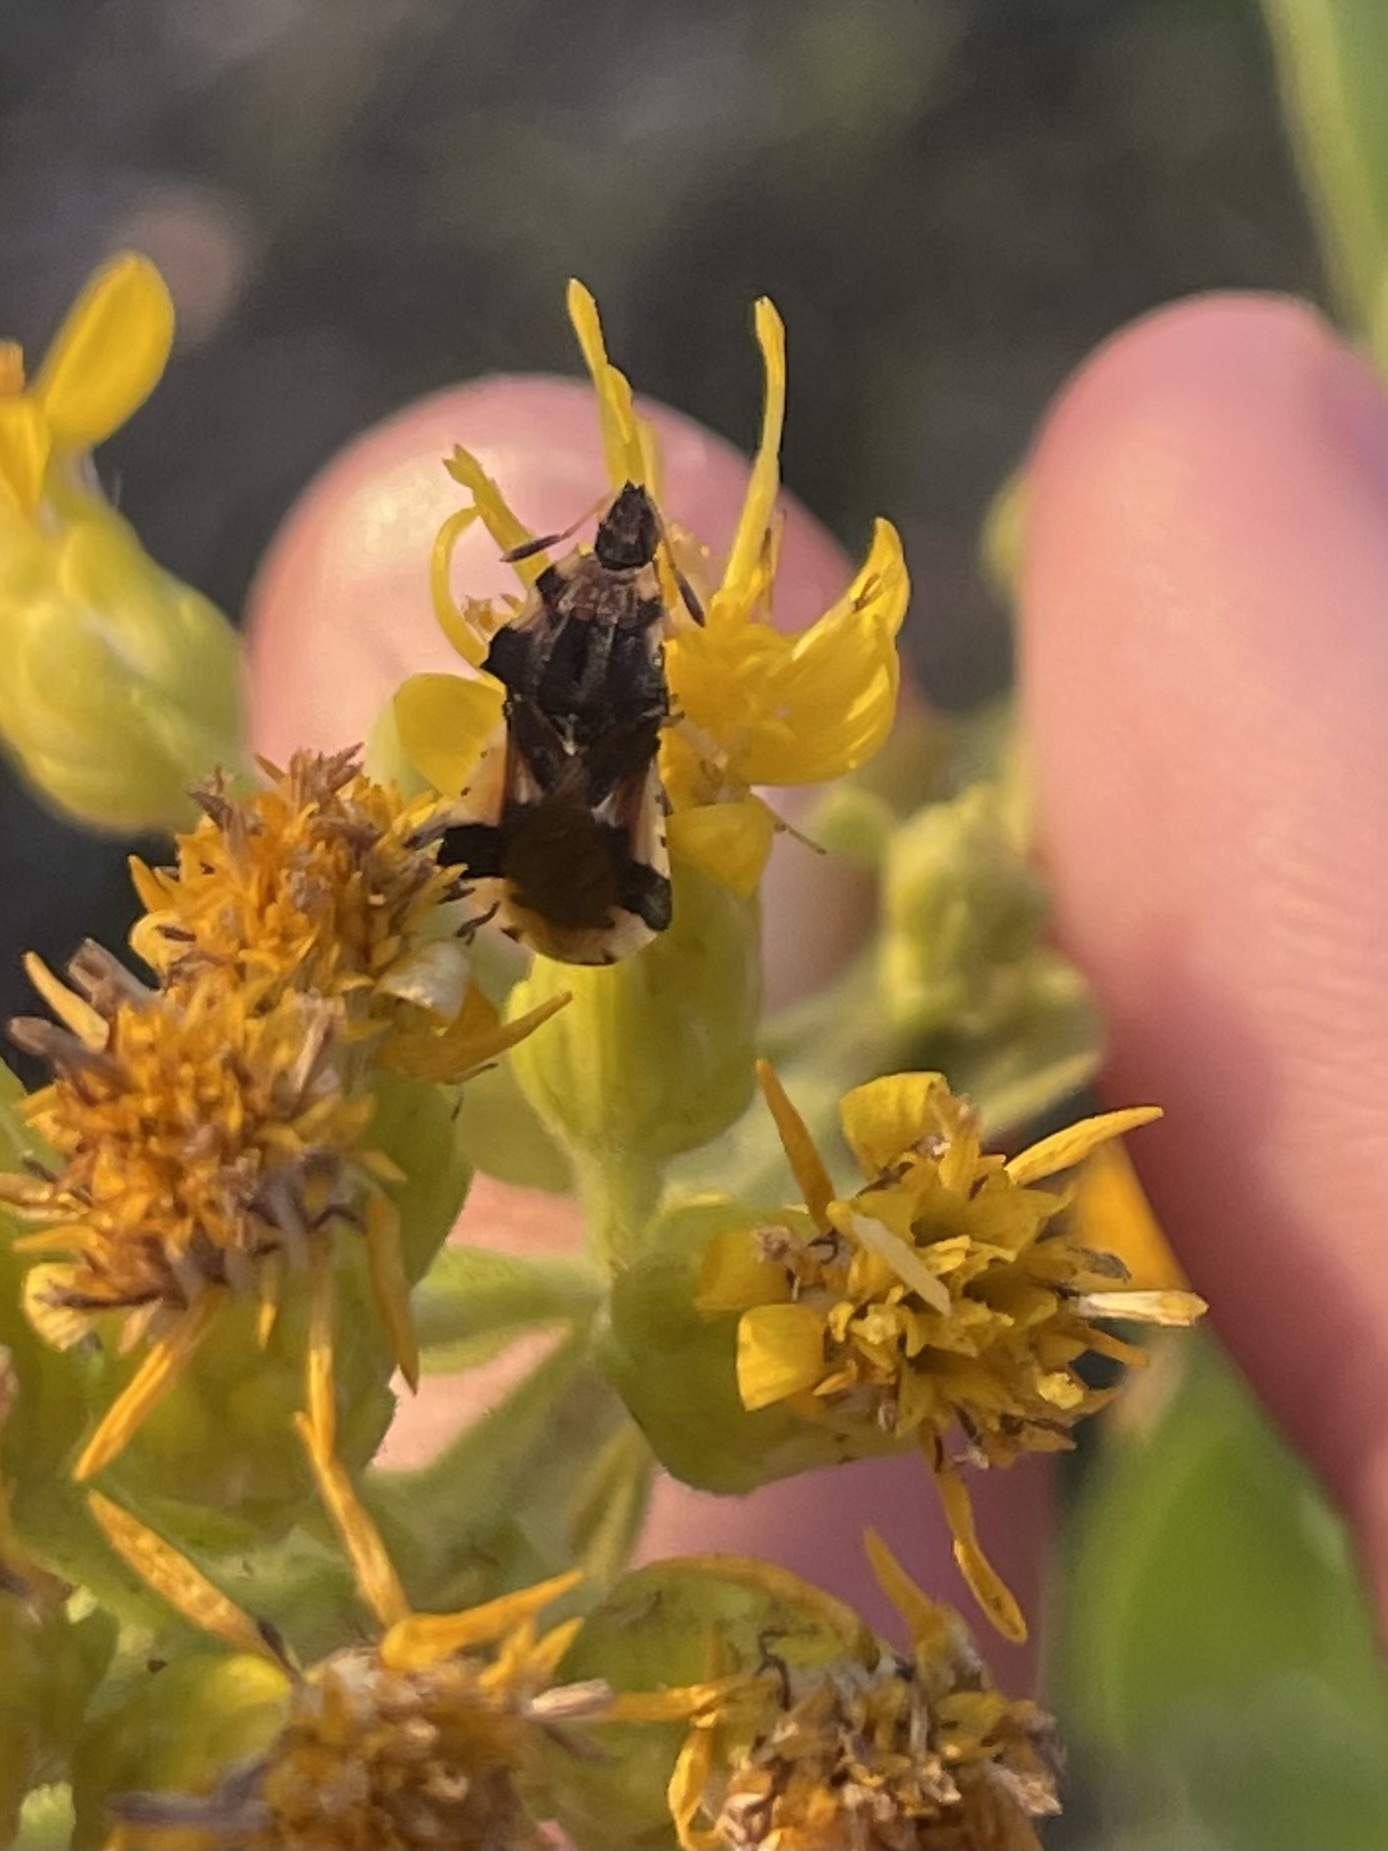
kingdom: Animalia
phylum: Arthropoda
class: Insecta
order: Hemiptera
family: Reduviidae
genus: Phymata
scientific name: Phymata americana
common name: Jagged ambush bug
